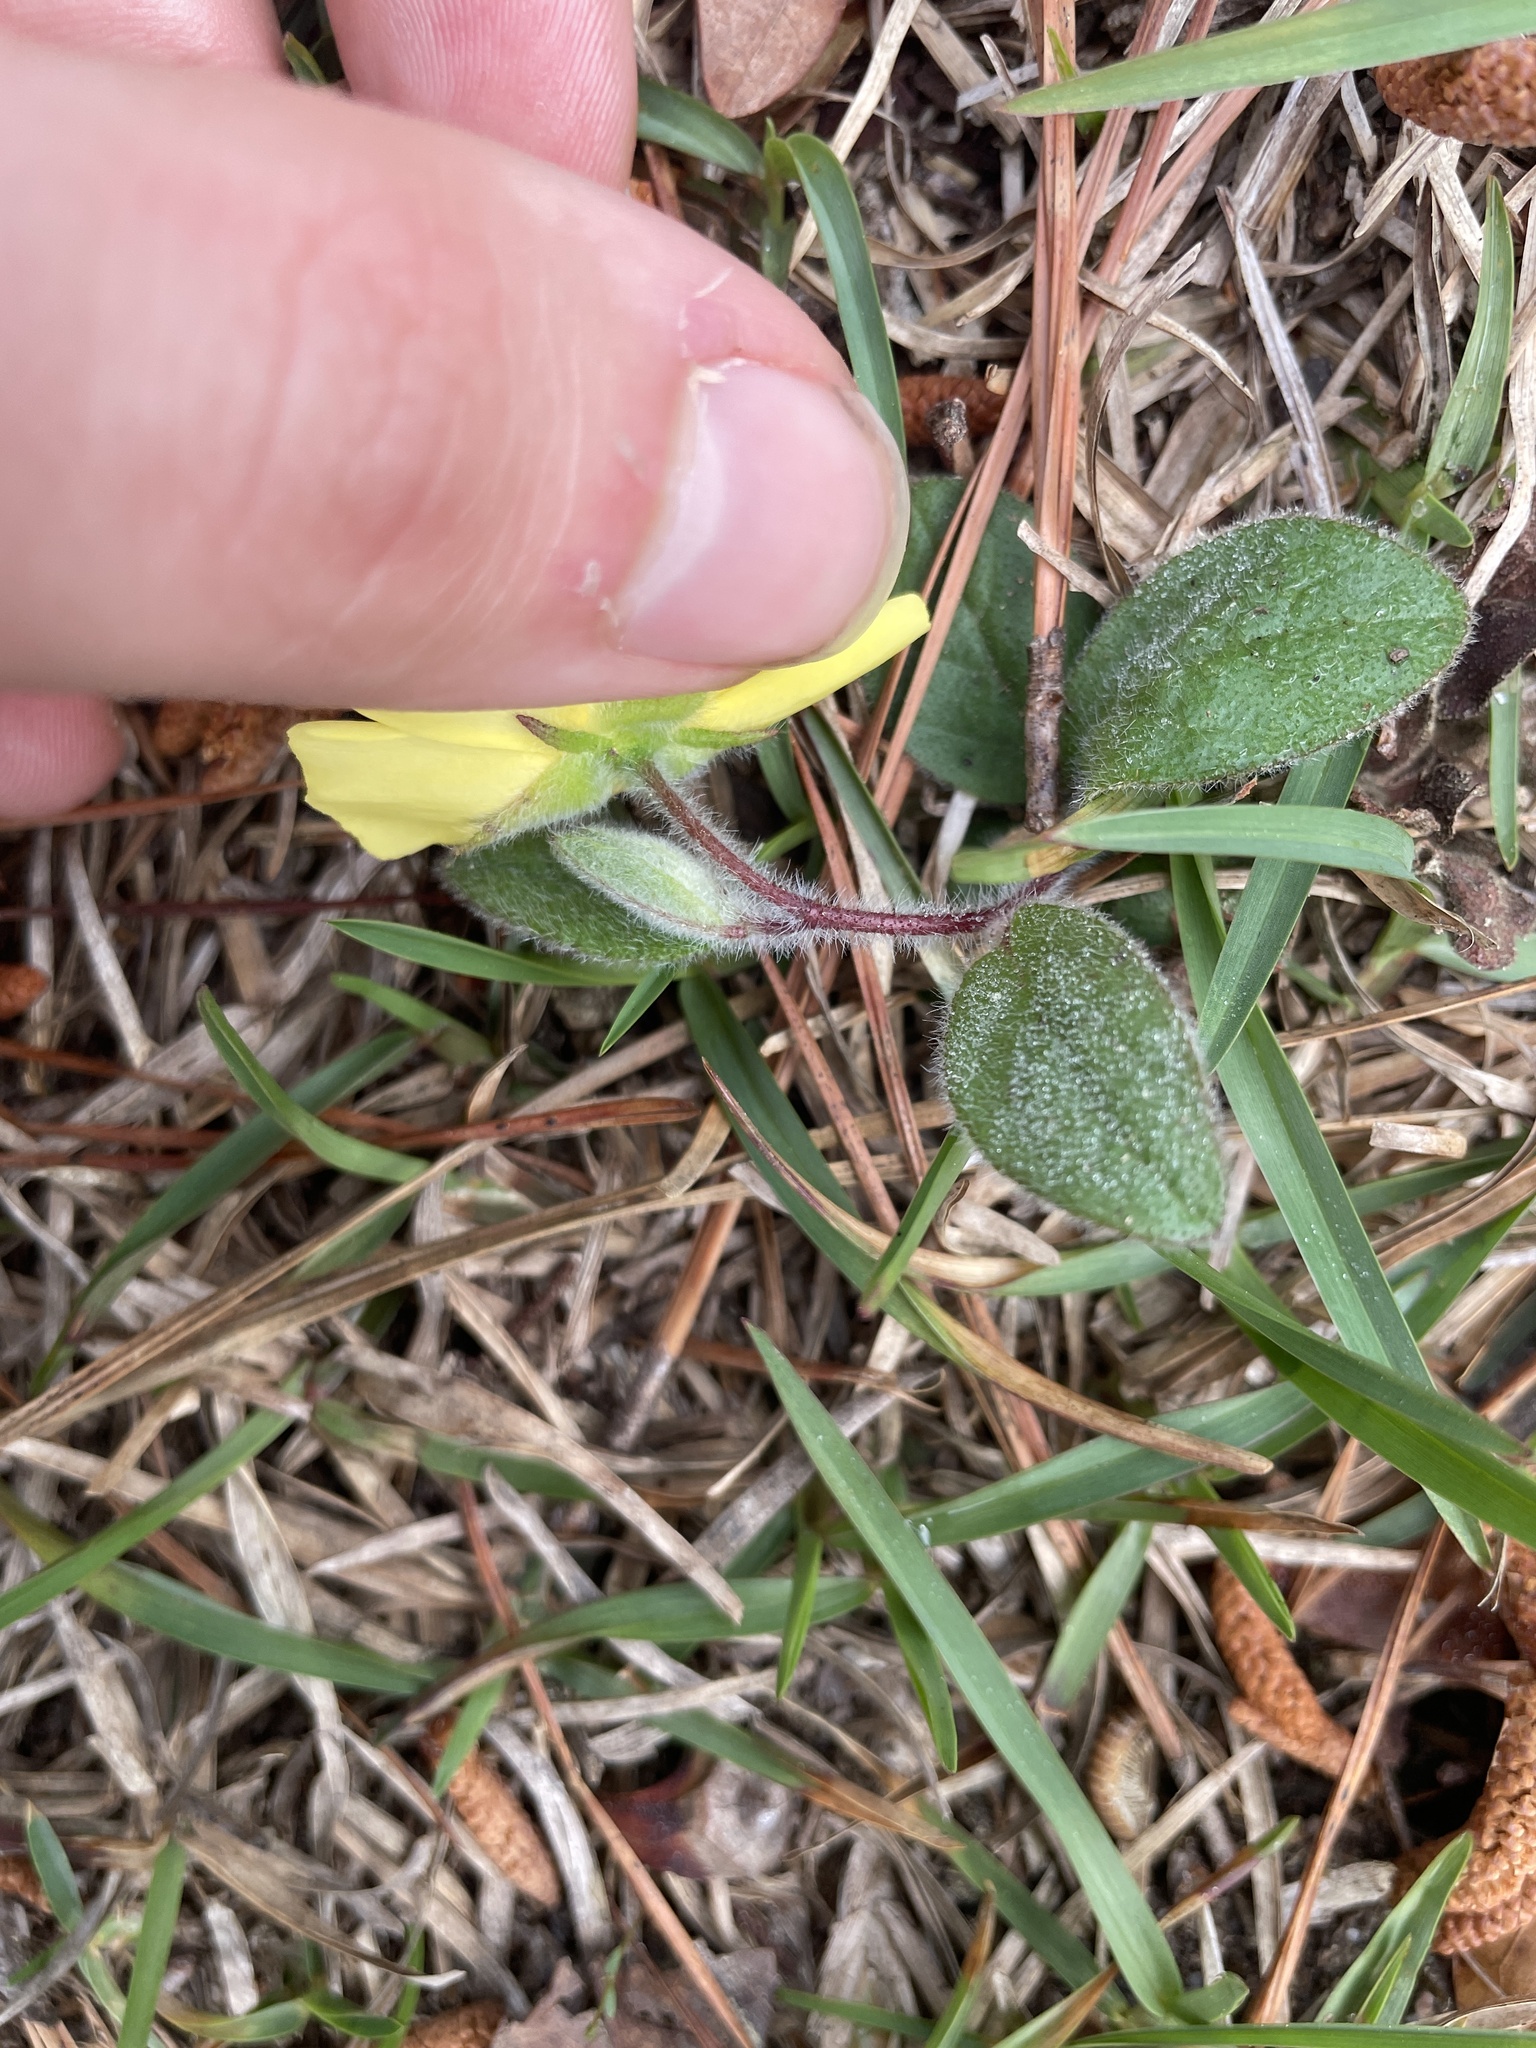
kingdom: Plantae
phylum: Tracheophyta
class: Magnoliopsida
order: Malvales
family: Cistaceae
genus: Crocanthemum
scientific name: Crocanthemum carolinianum
